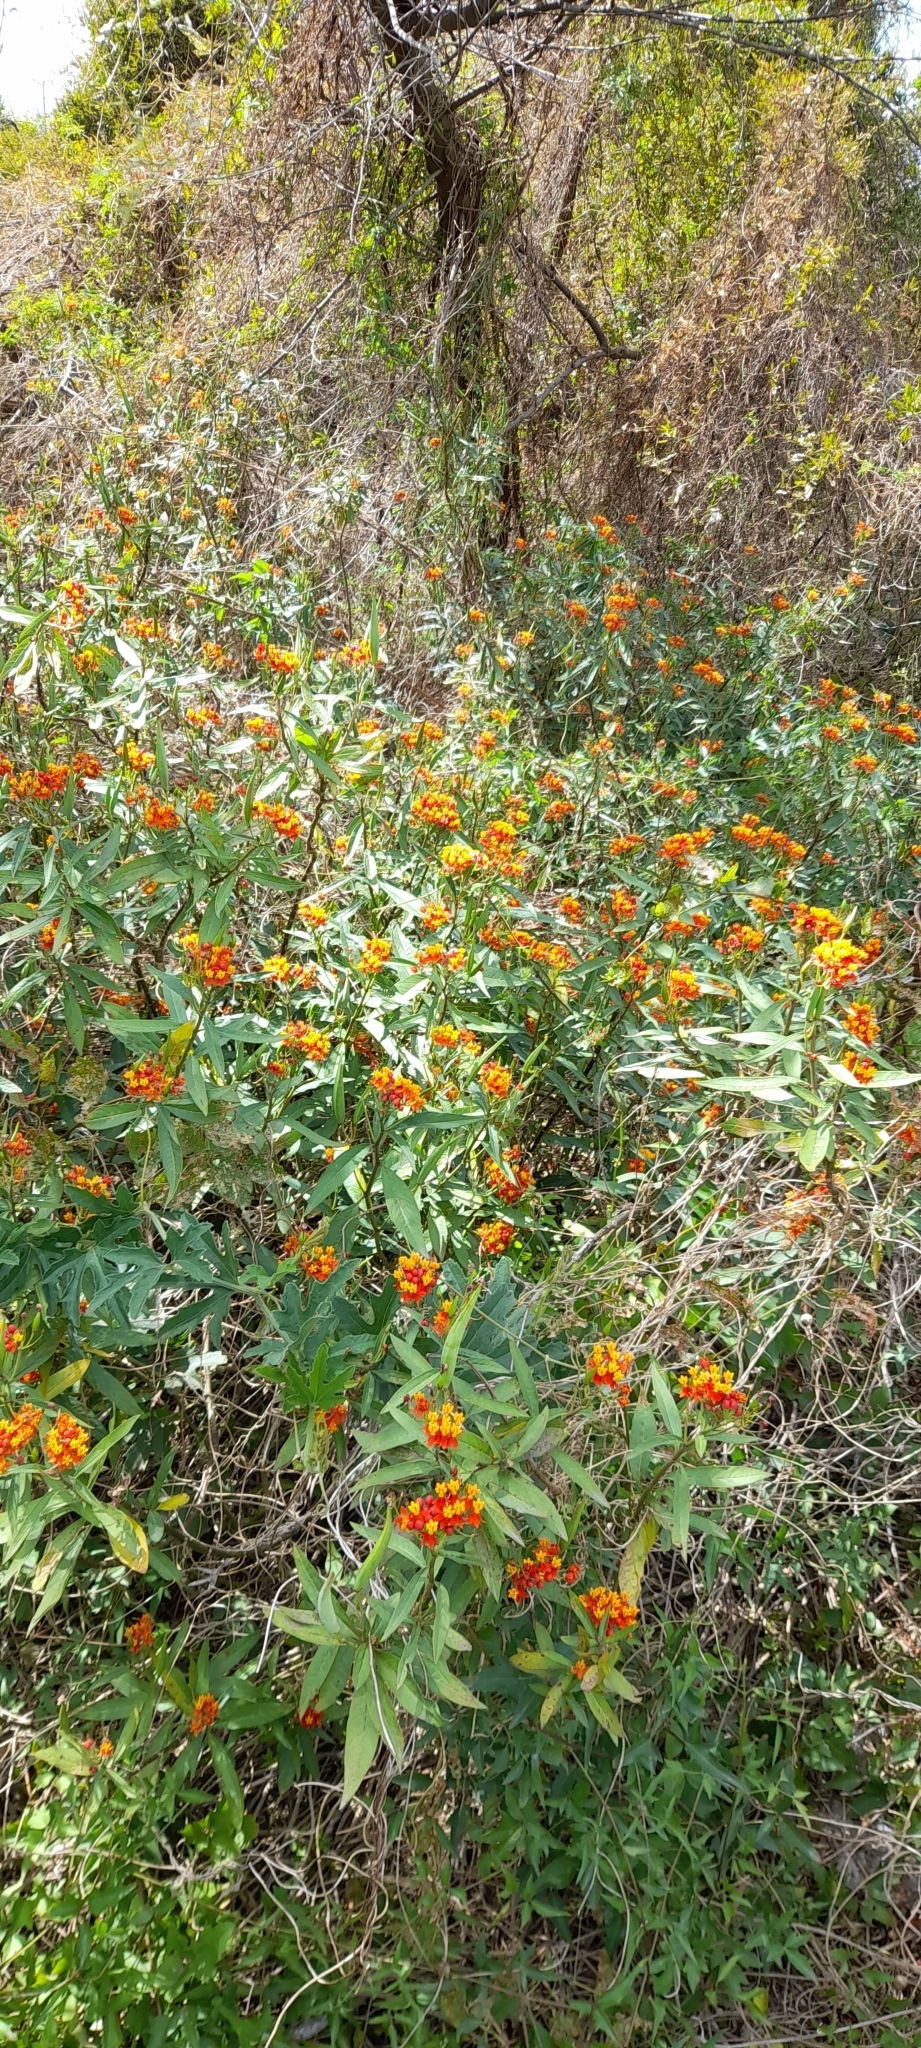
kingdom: Plantae
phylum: Tracheophyta
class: Magnoliopsida
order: Gentianales
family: Apocynaceae
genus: Asclepias
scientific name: Asclepias curassavica
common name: Bloodflower
